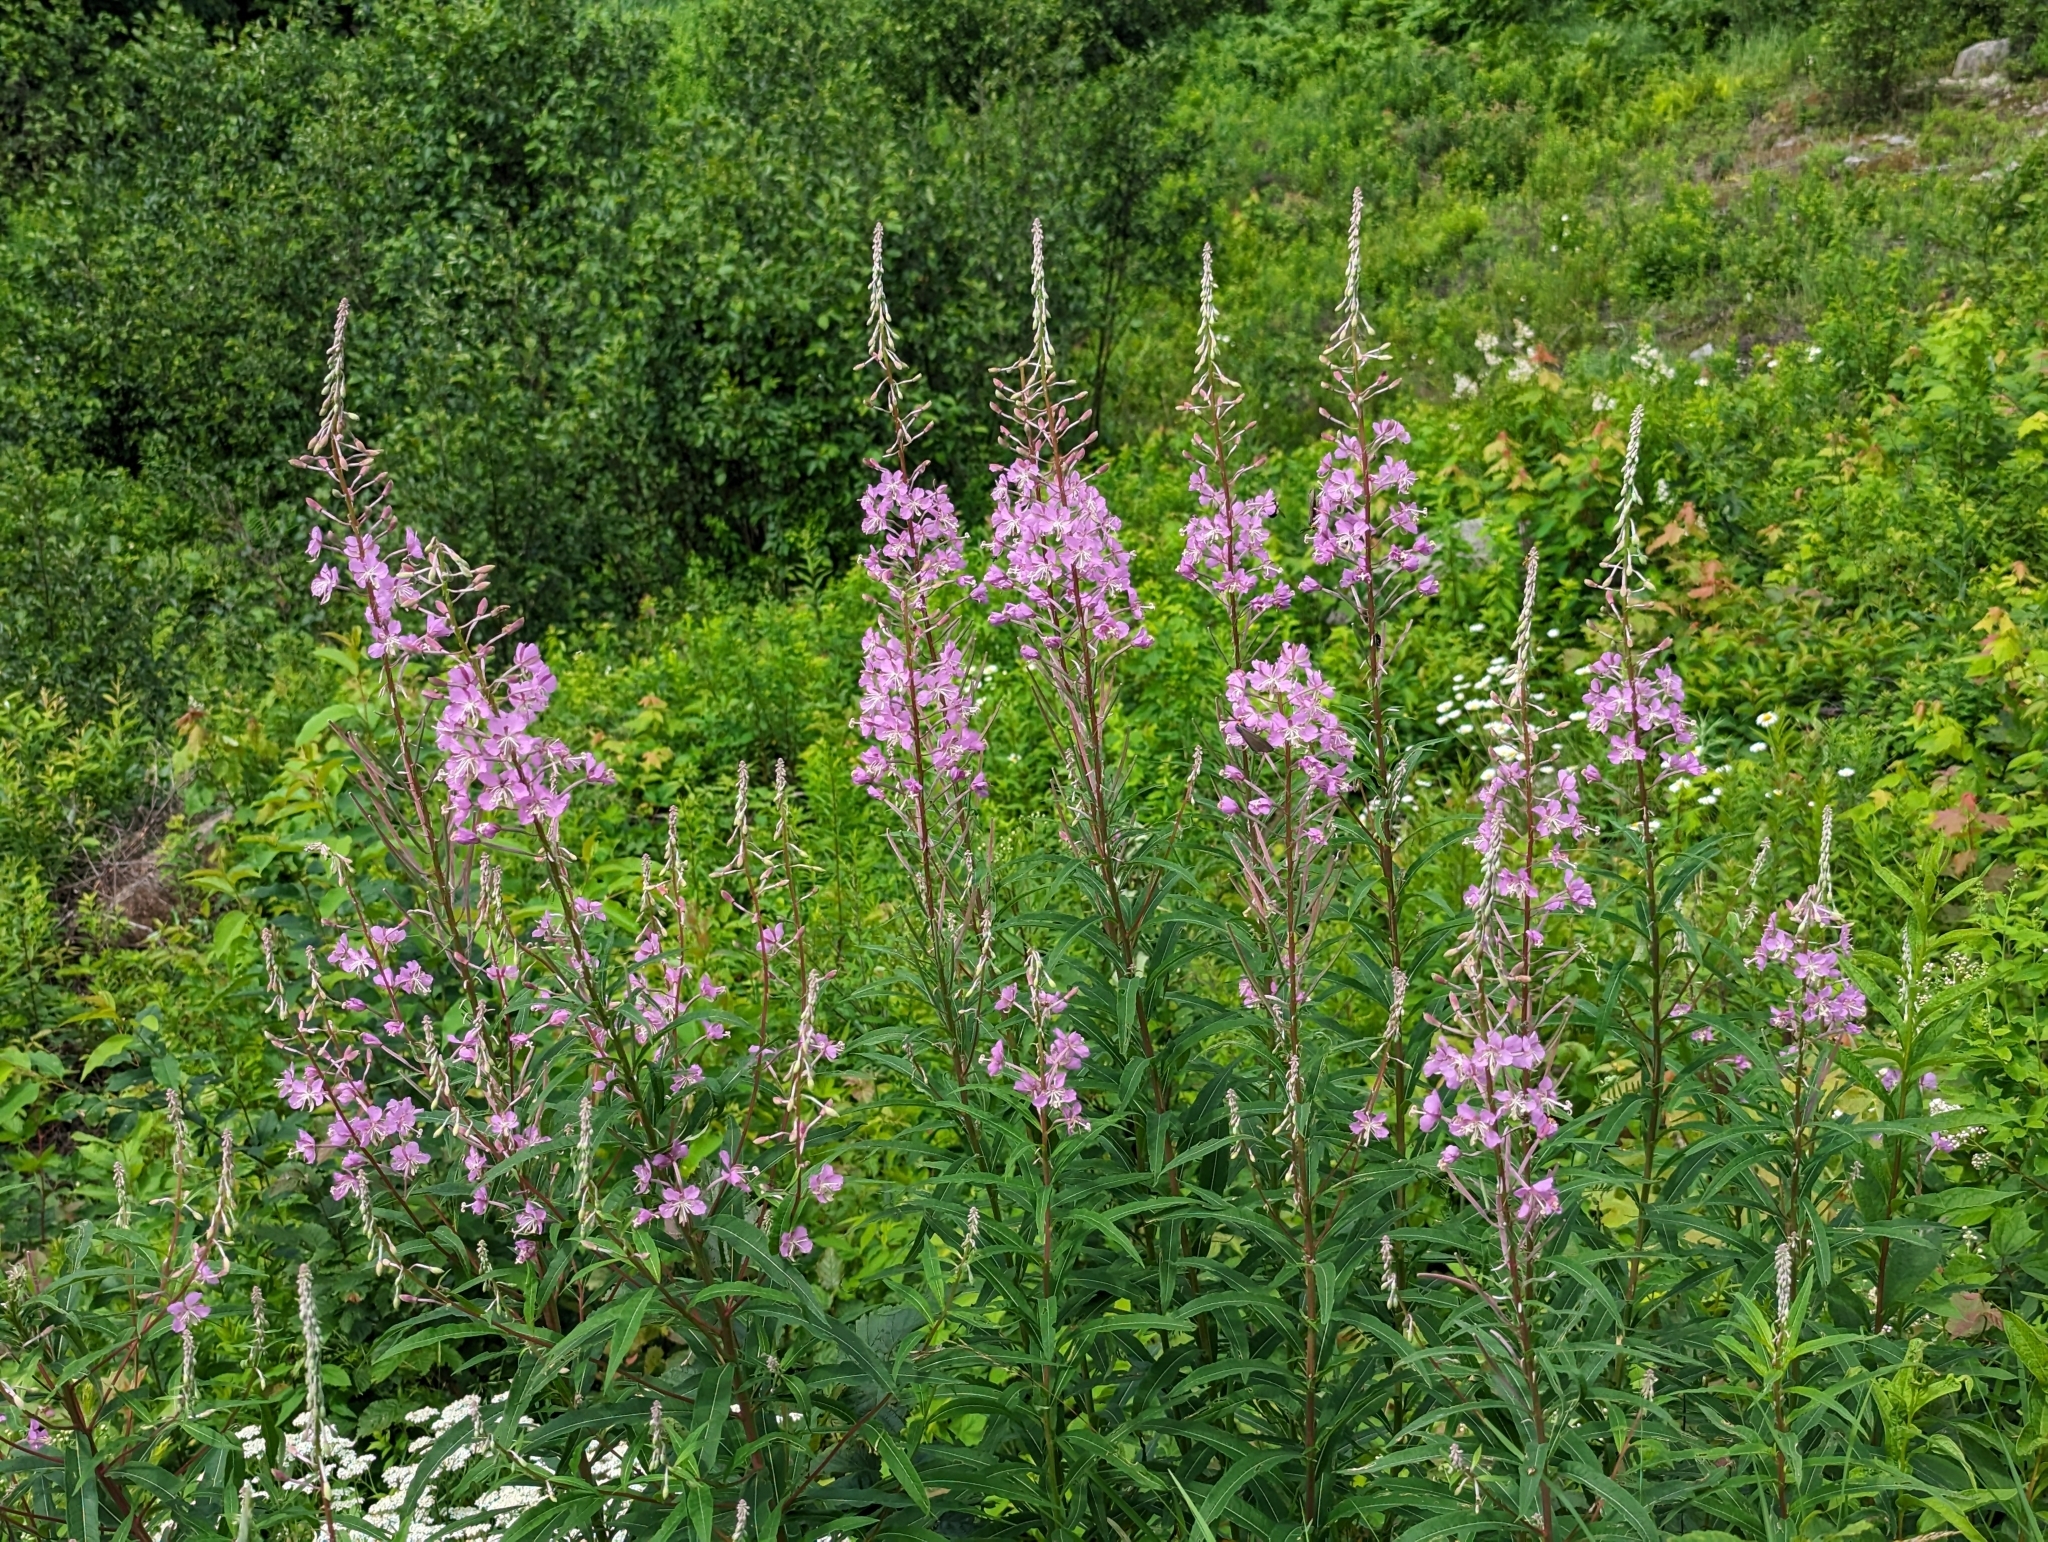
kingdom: Plantae
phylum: Tracheophyta
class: Magnoliopsida
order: Myrtales
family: Onagraceae
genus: Chamaenerion
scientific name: Chamaenerion angustifolium
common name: Fireweed
